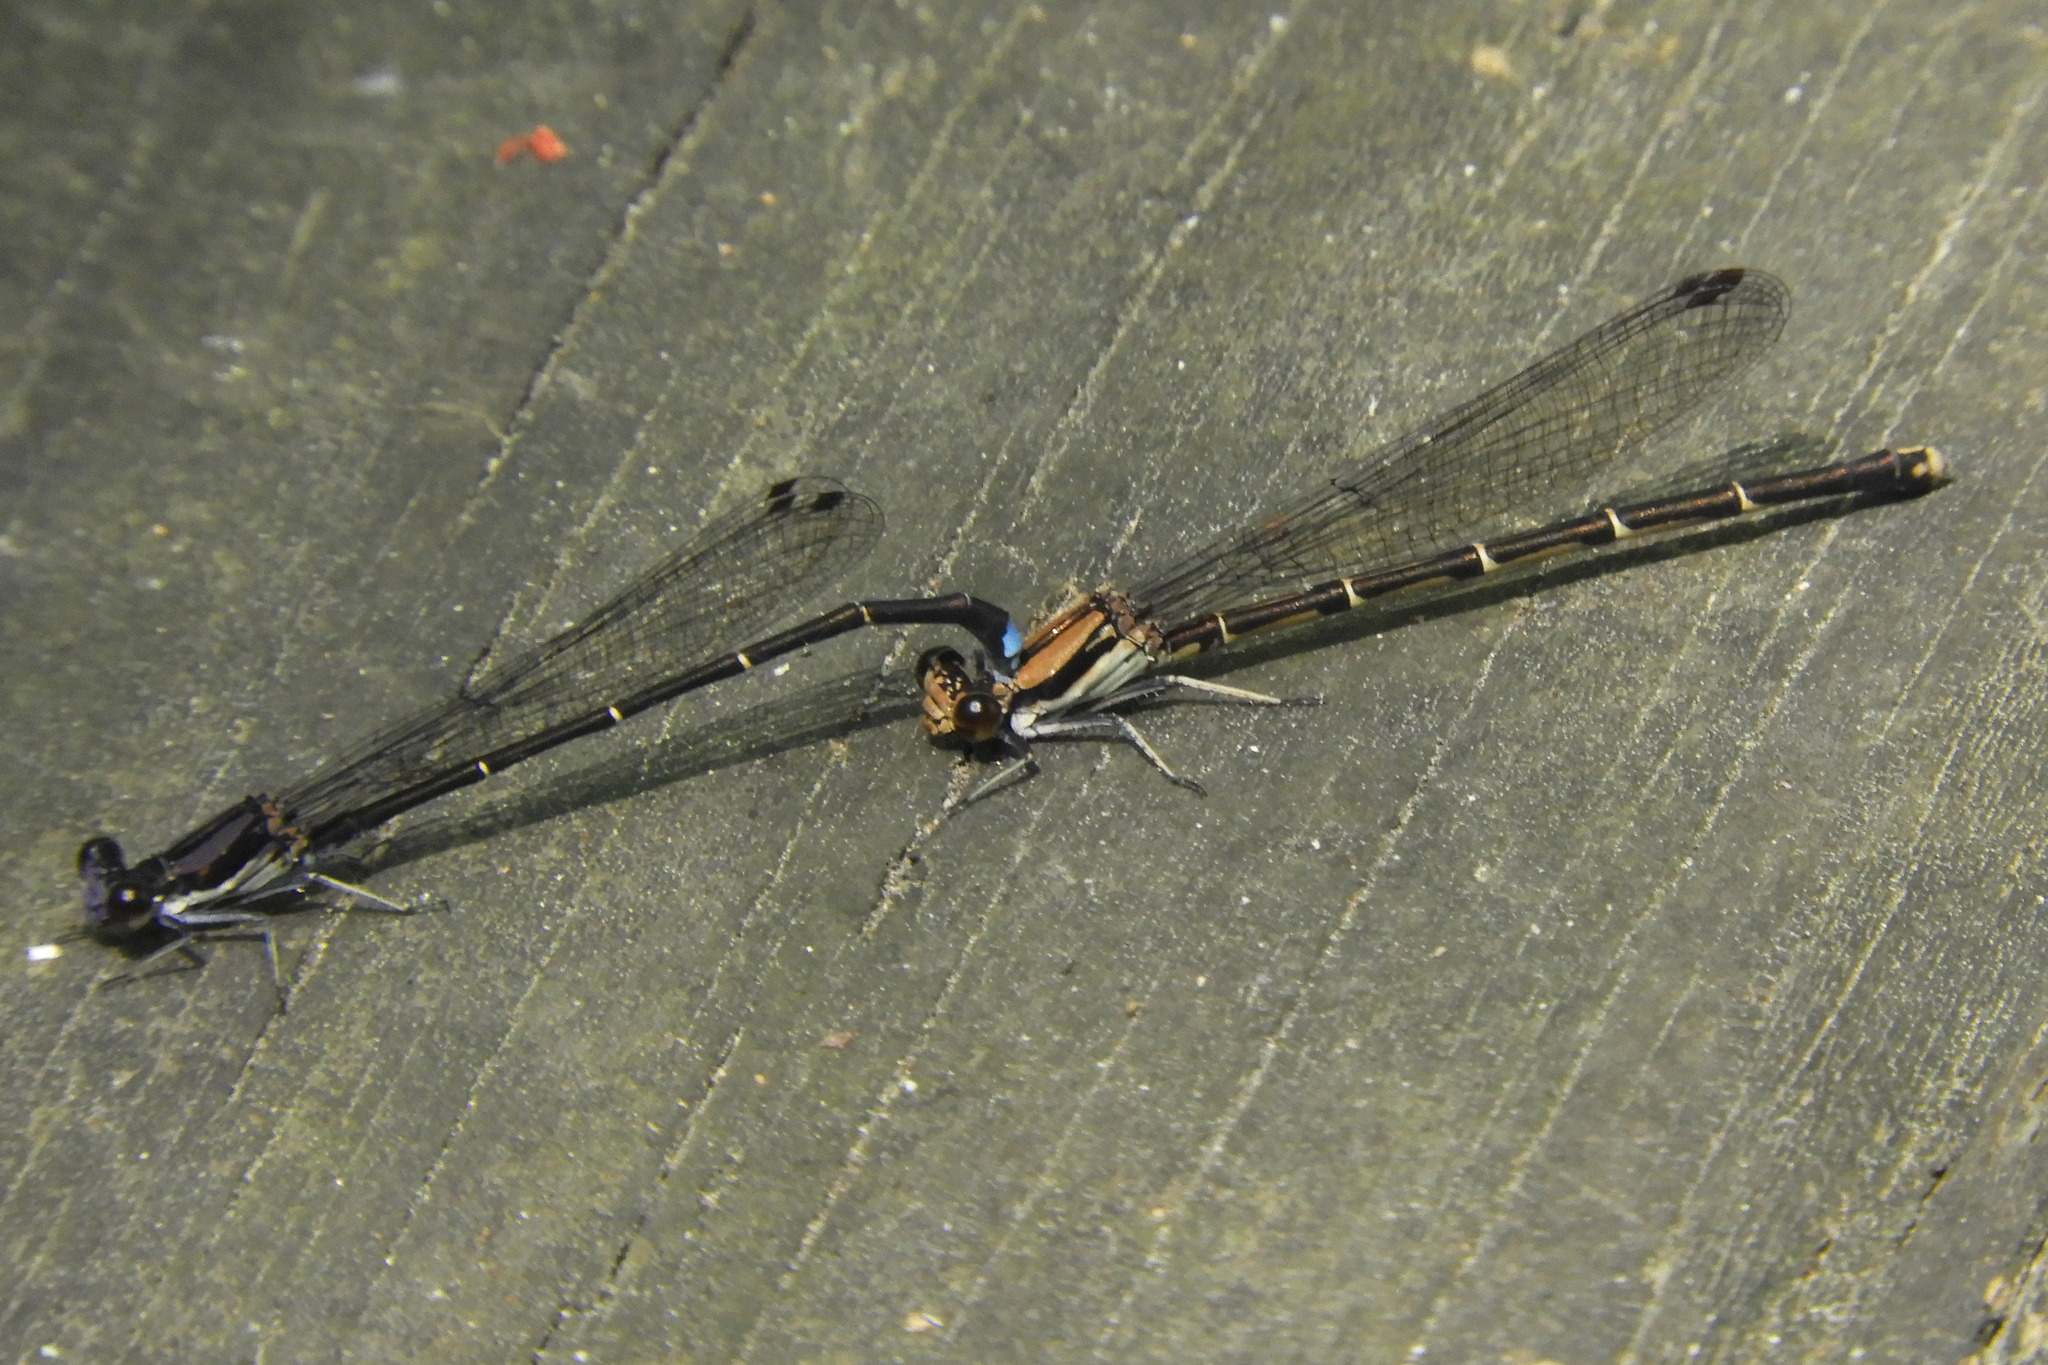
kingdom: Animalia
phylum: Arthropoda
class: Insecta
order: Odonata
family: Coenagrionidae
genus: Argia
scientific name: Argia tibialis
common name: Blue-tipped dancer
